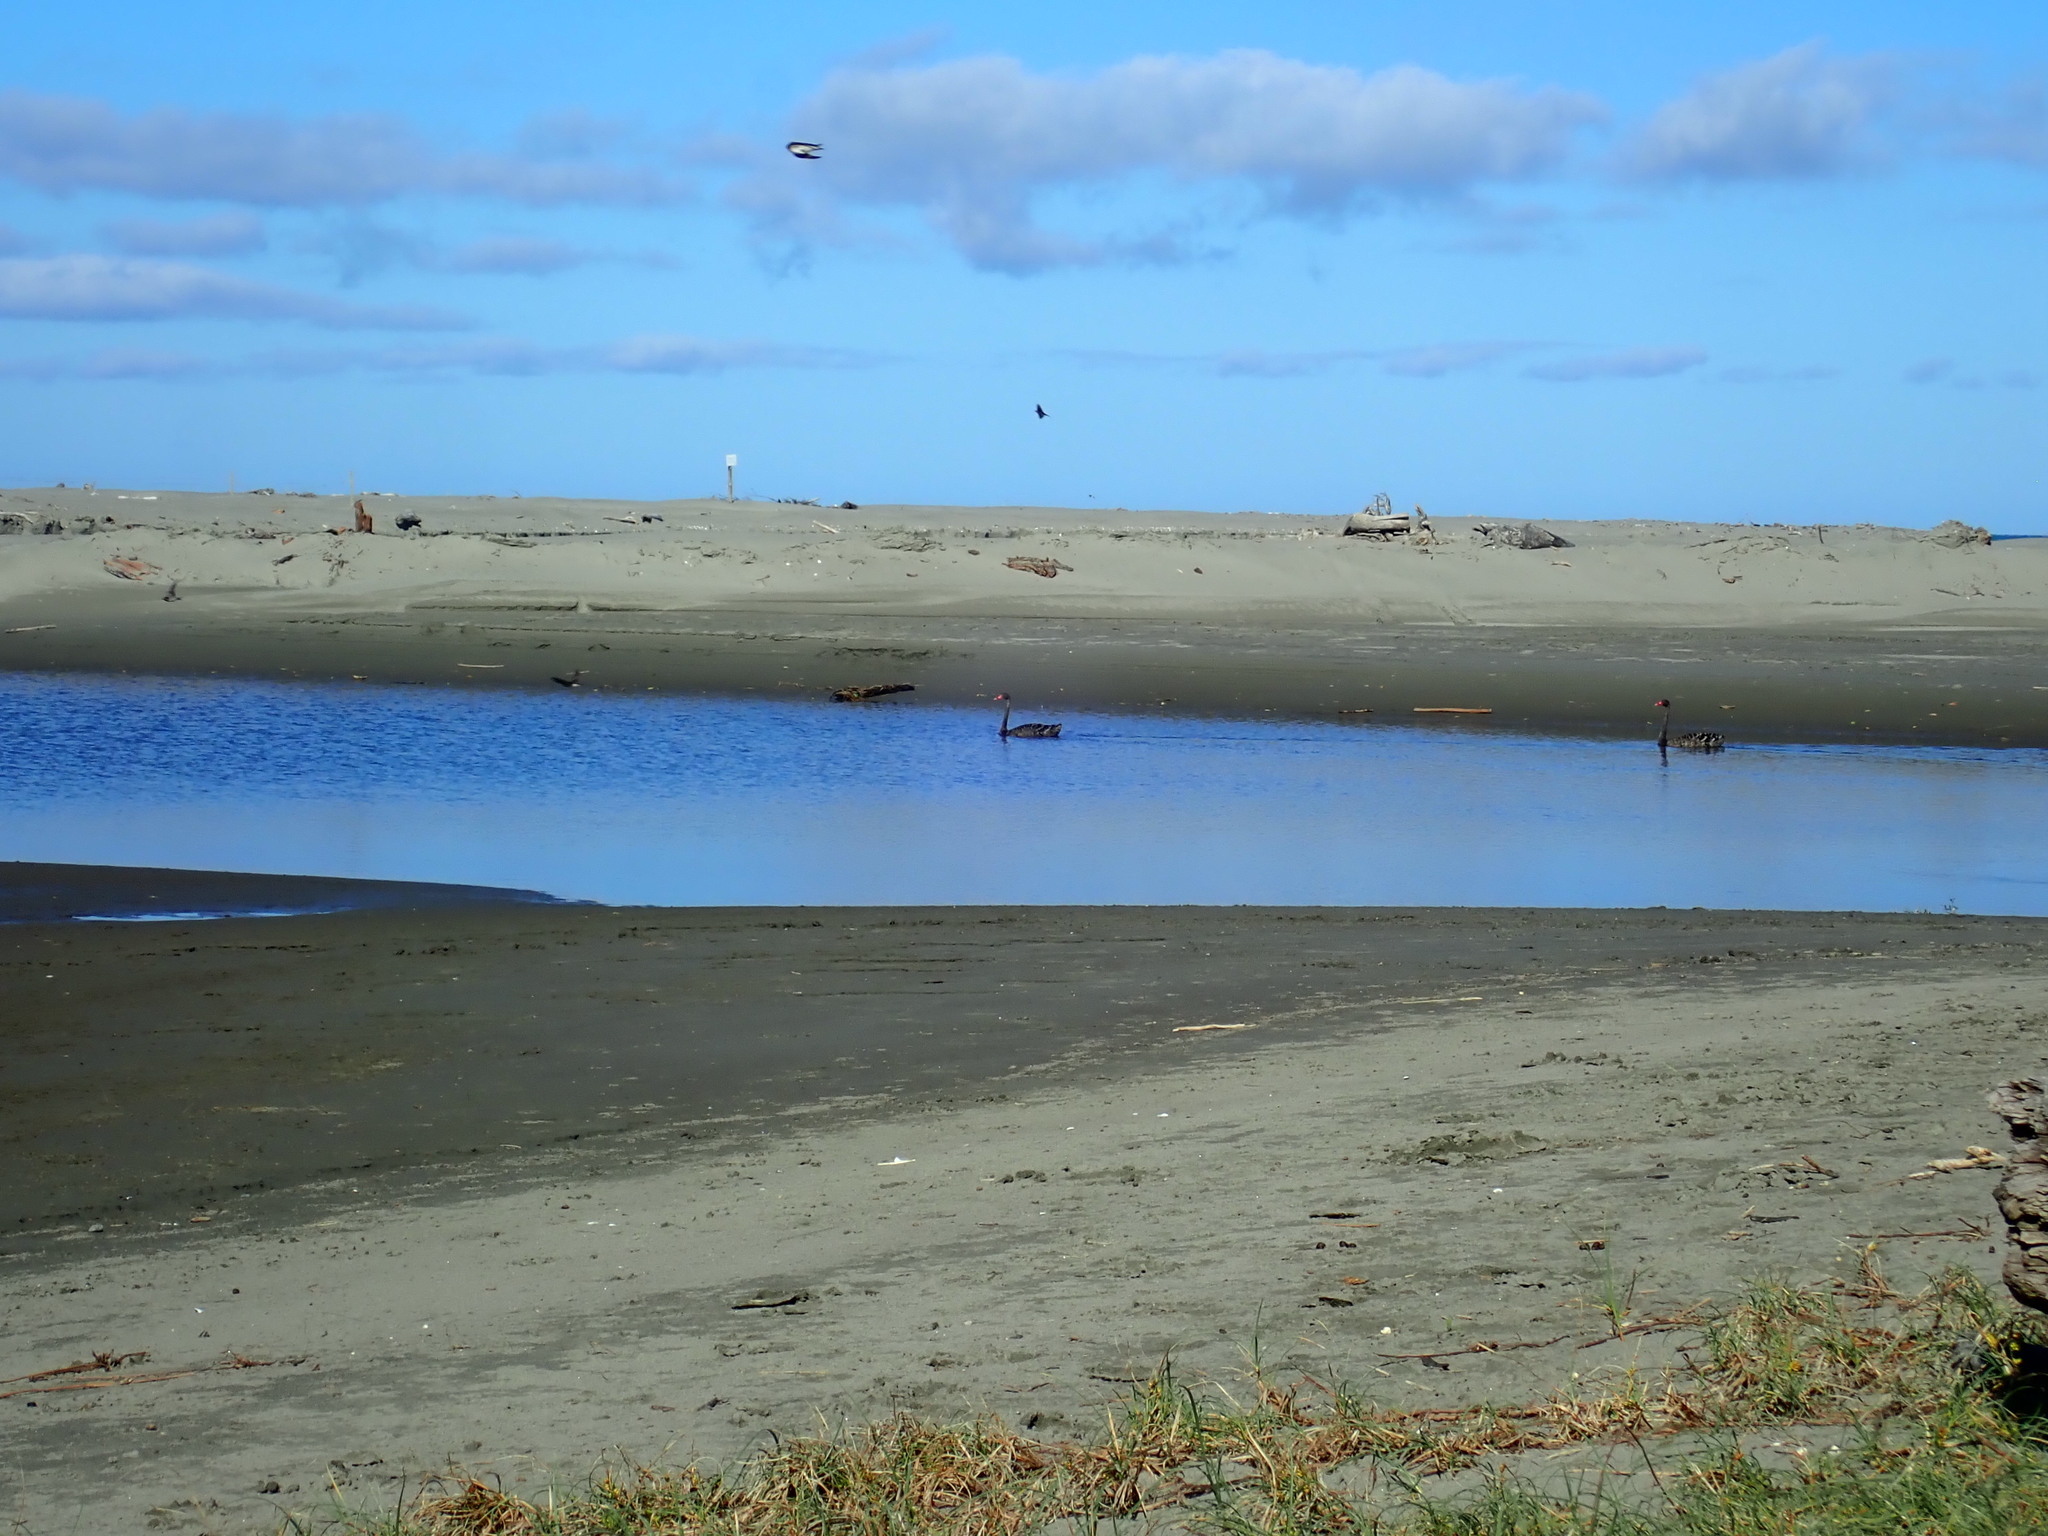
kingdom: Animalia
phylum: Chordata
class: Aves
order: Anseriformes
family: Anatidae
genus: Cygnus
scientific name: Cygnus atratus
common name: Black swan
